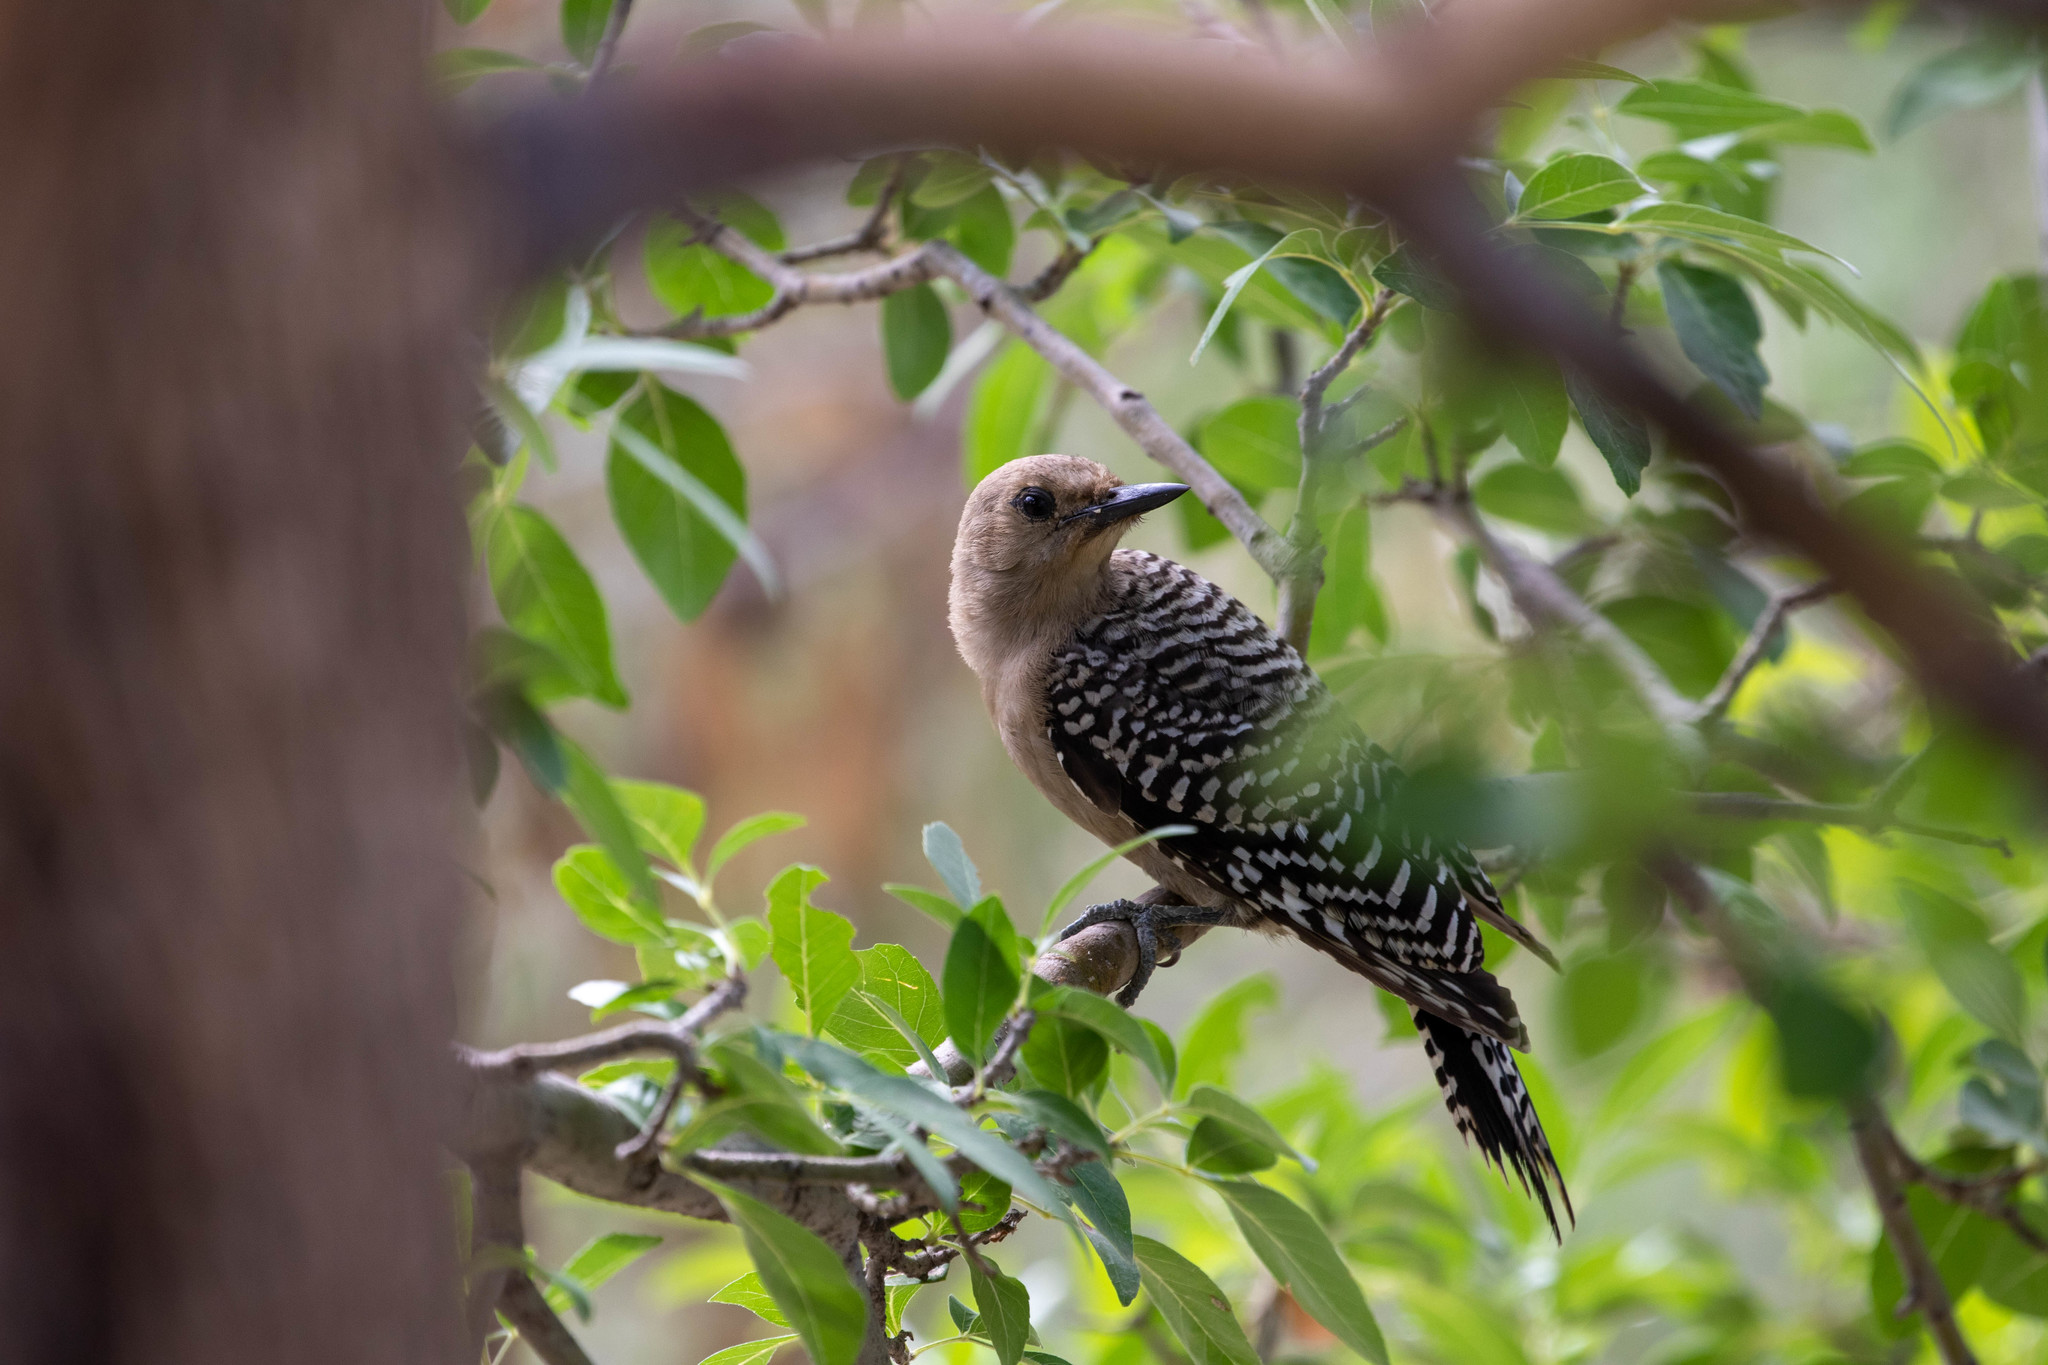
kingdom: Animalia
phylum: Chordata
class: Aves
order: Piciformes
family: Picidae
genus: Melanerpes
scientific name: Melanerpes uropygialis
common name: Gila woodpecker
